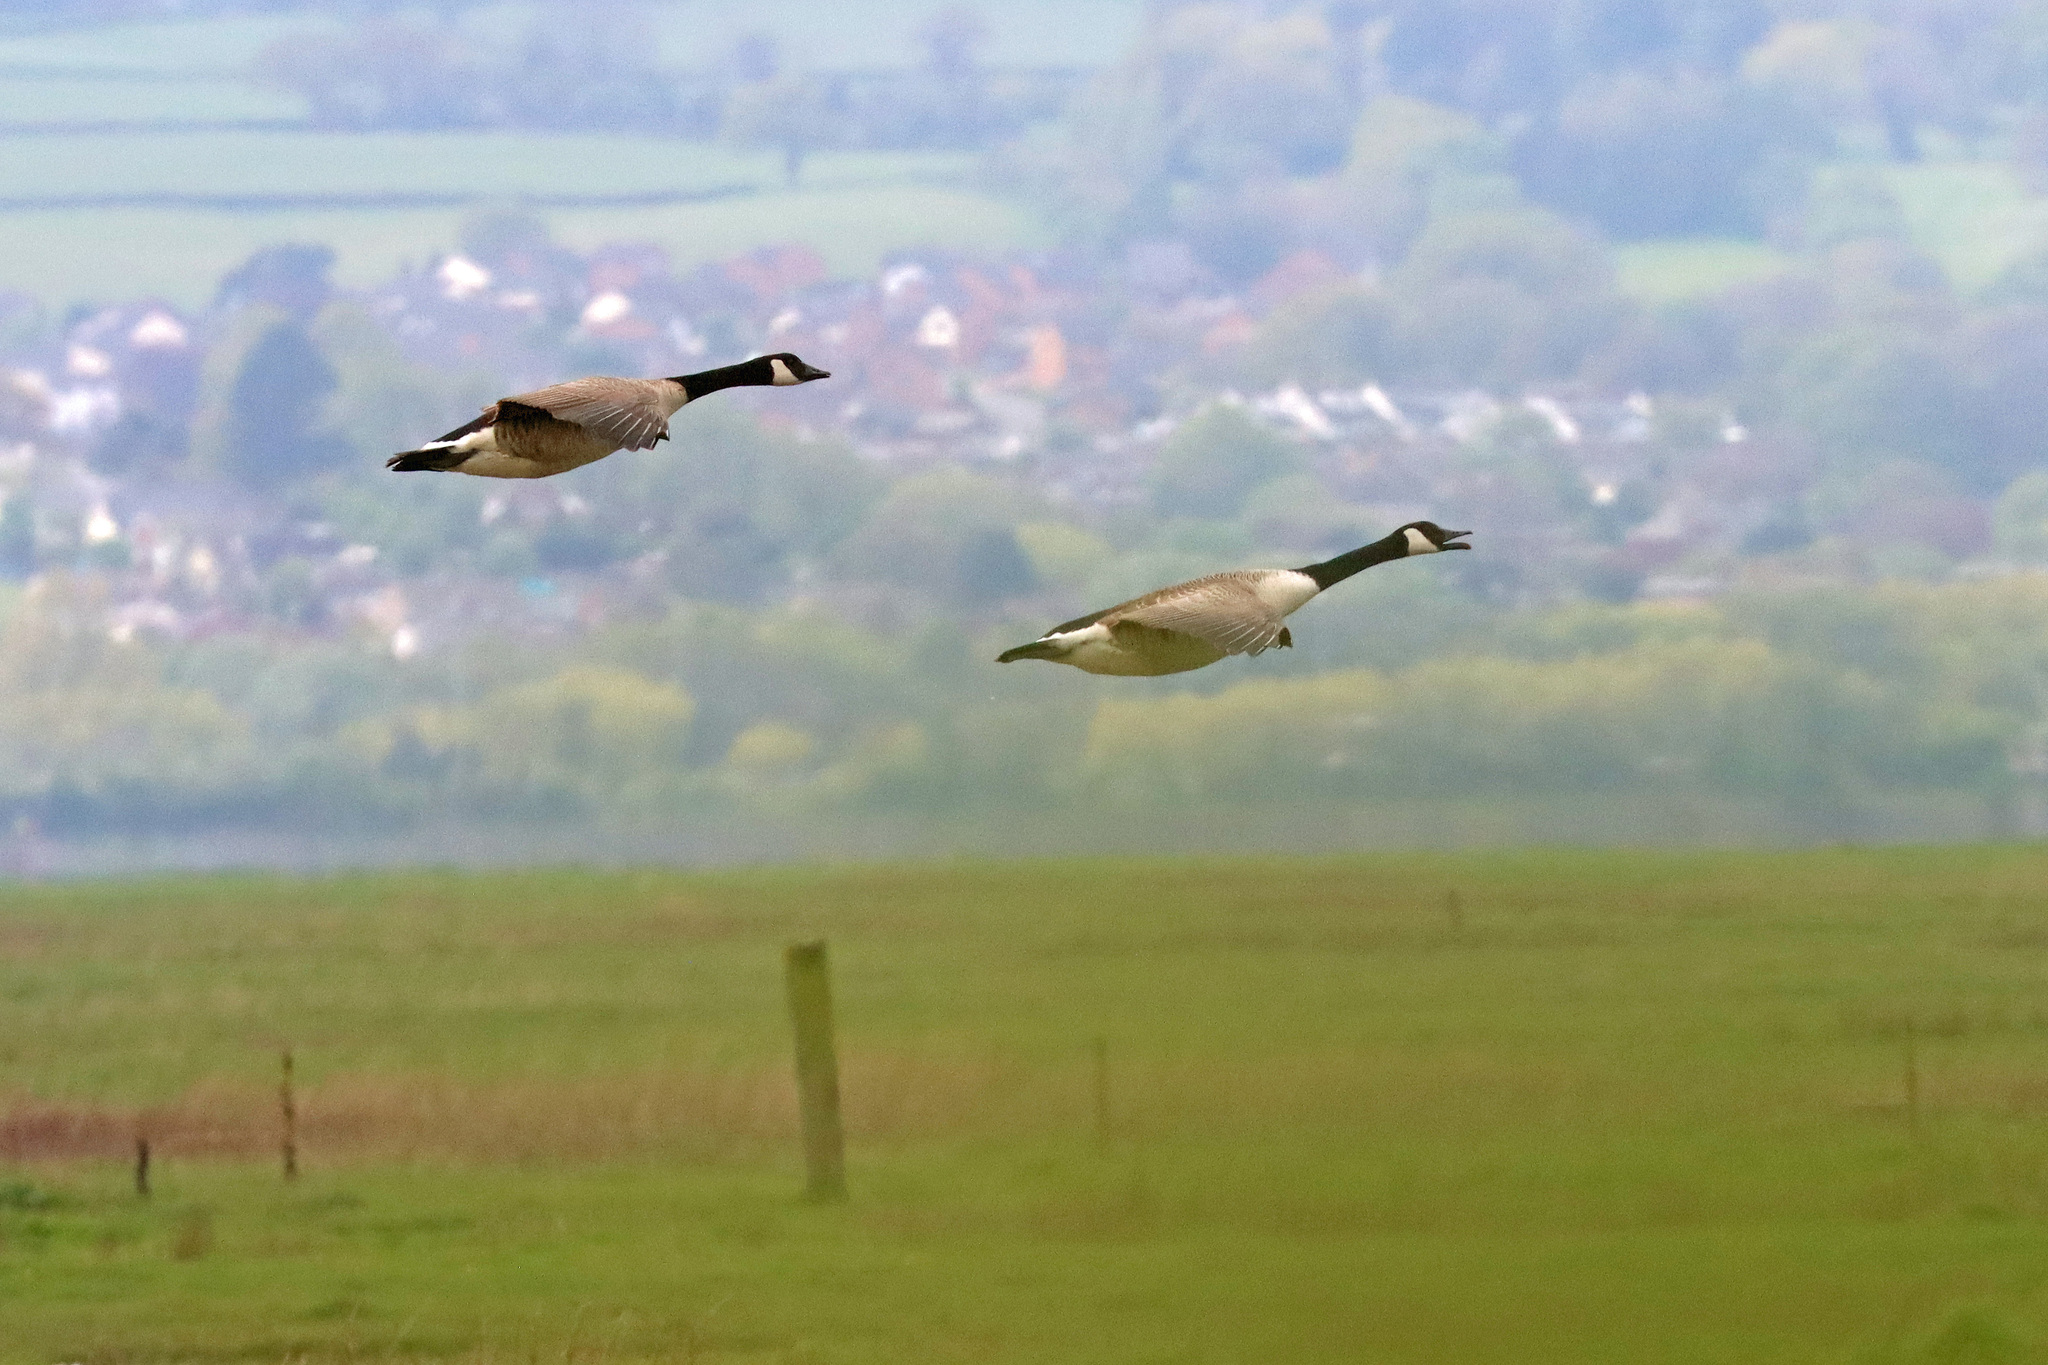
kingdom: Animalia
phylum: Chordata
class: Aves
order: Anseriformes
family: Anatidae
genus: Branta
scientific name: Branta canadensis
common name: Canada goose
